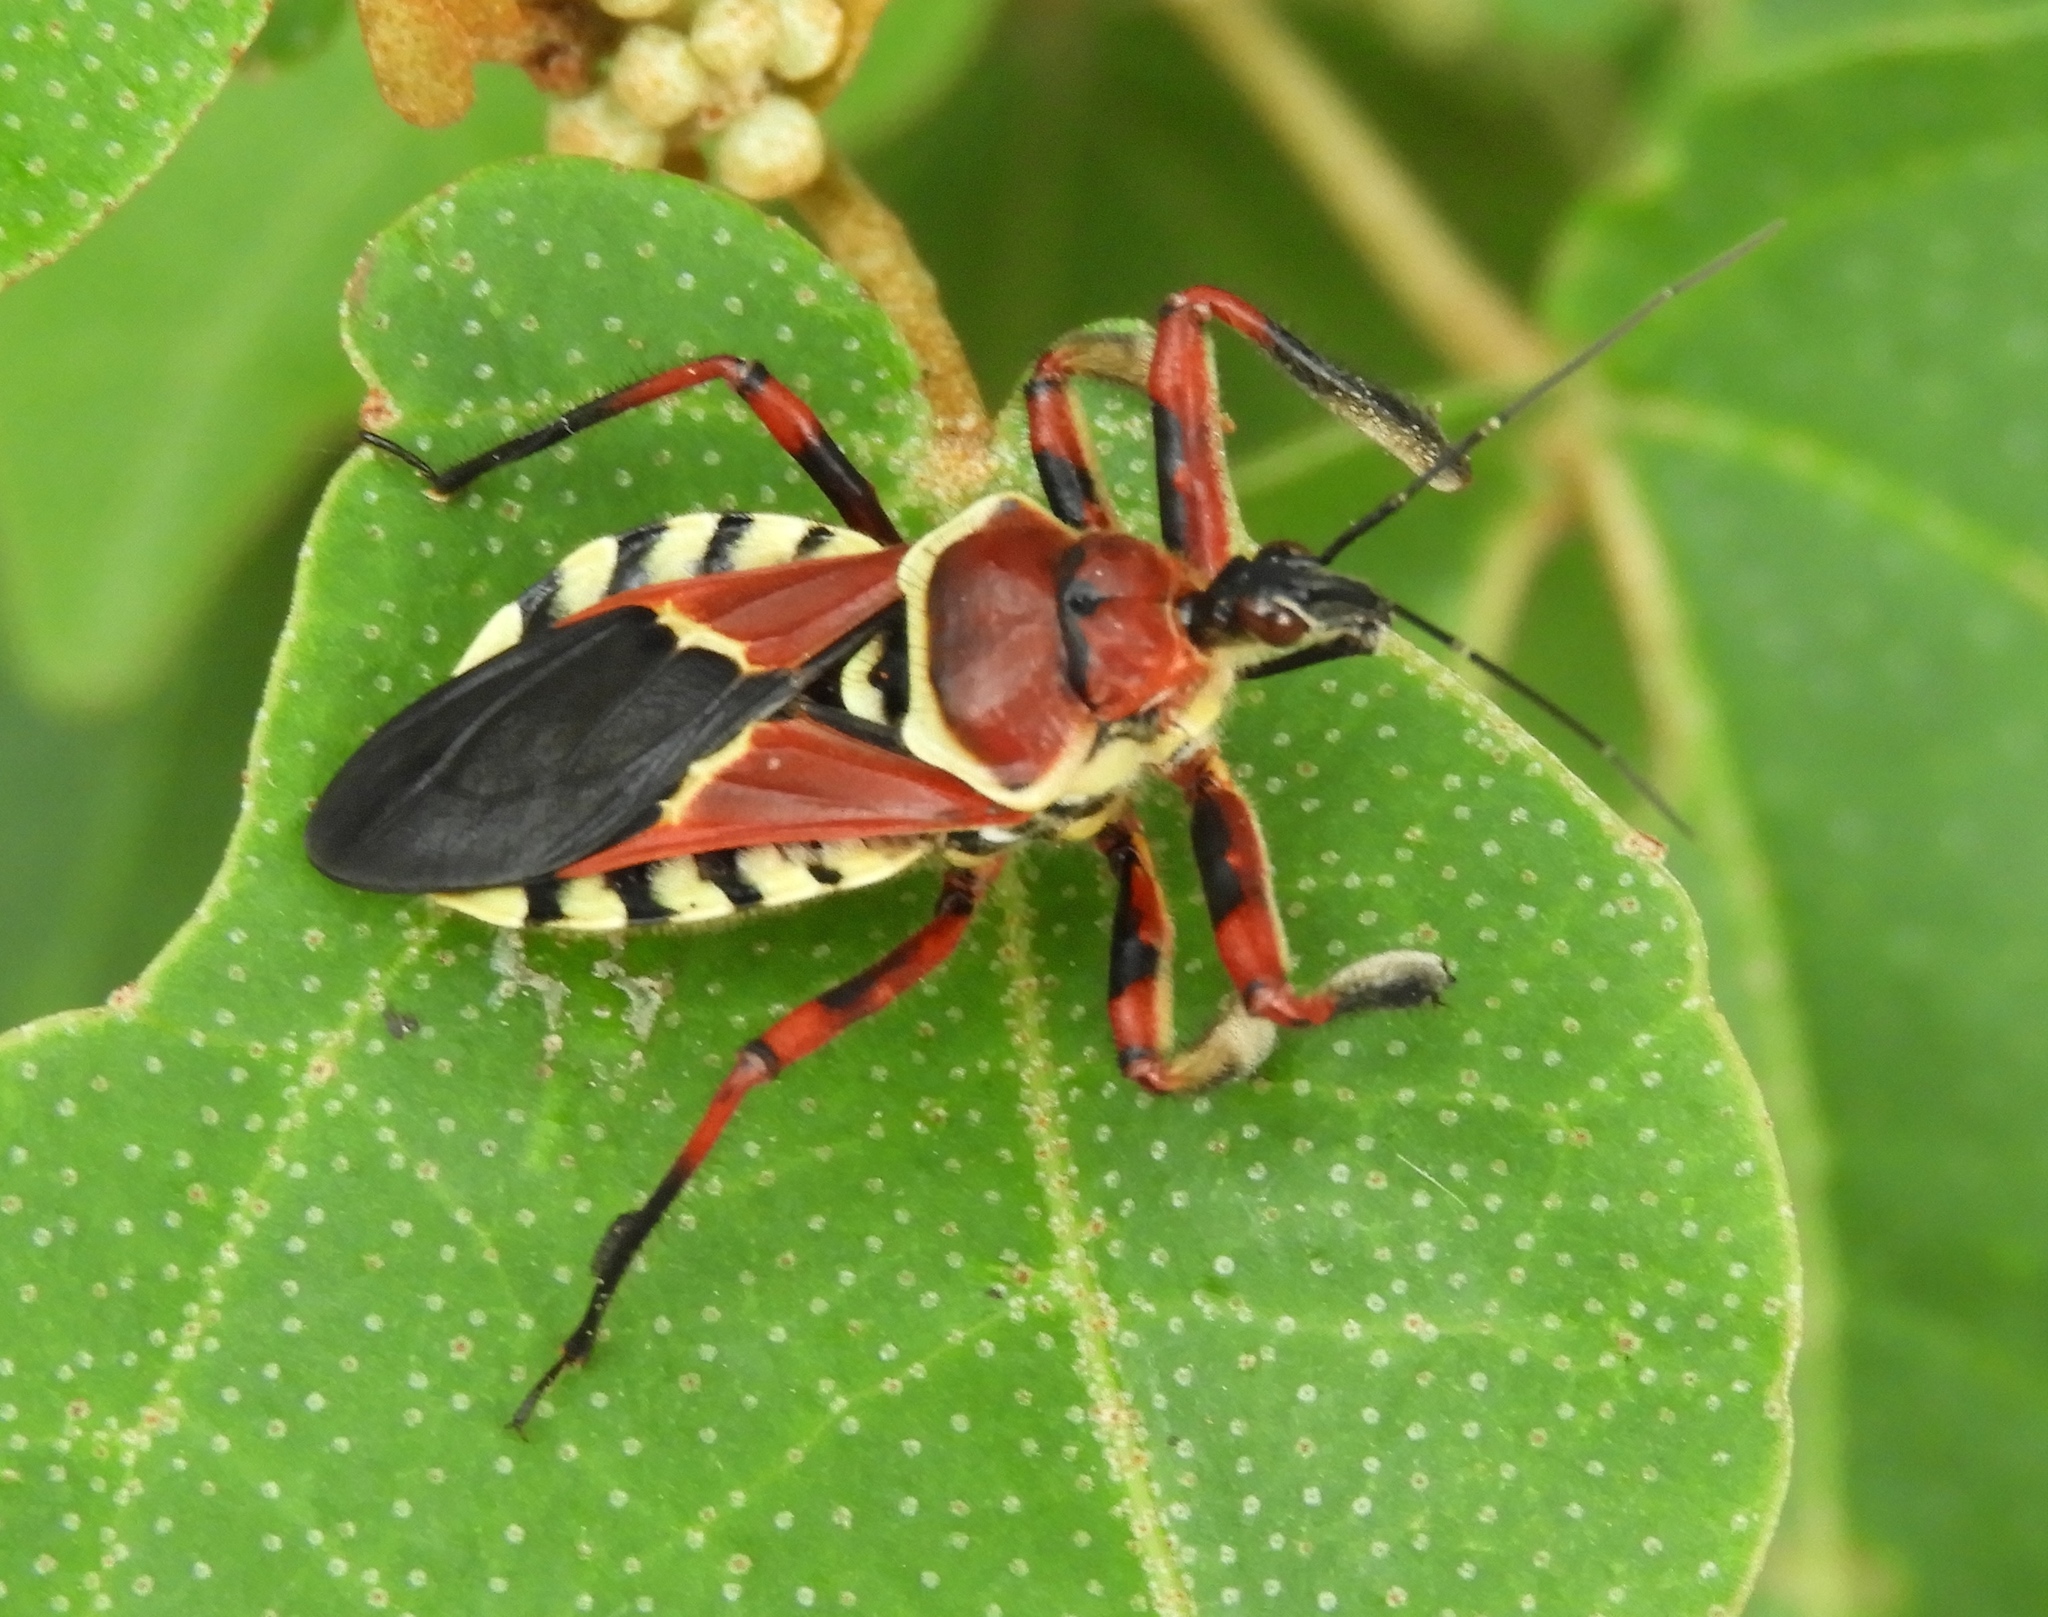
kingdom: Animalia
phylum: Arthropoda
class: Insecta
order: Hemiptera
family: Reduviidae
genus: Apiomerus
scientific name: Apiomerus flaviventris
